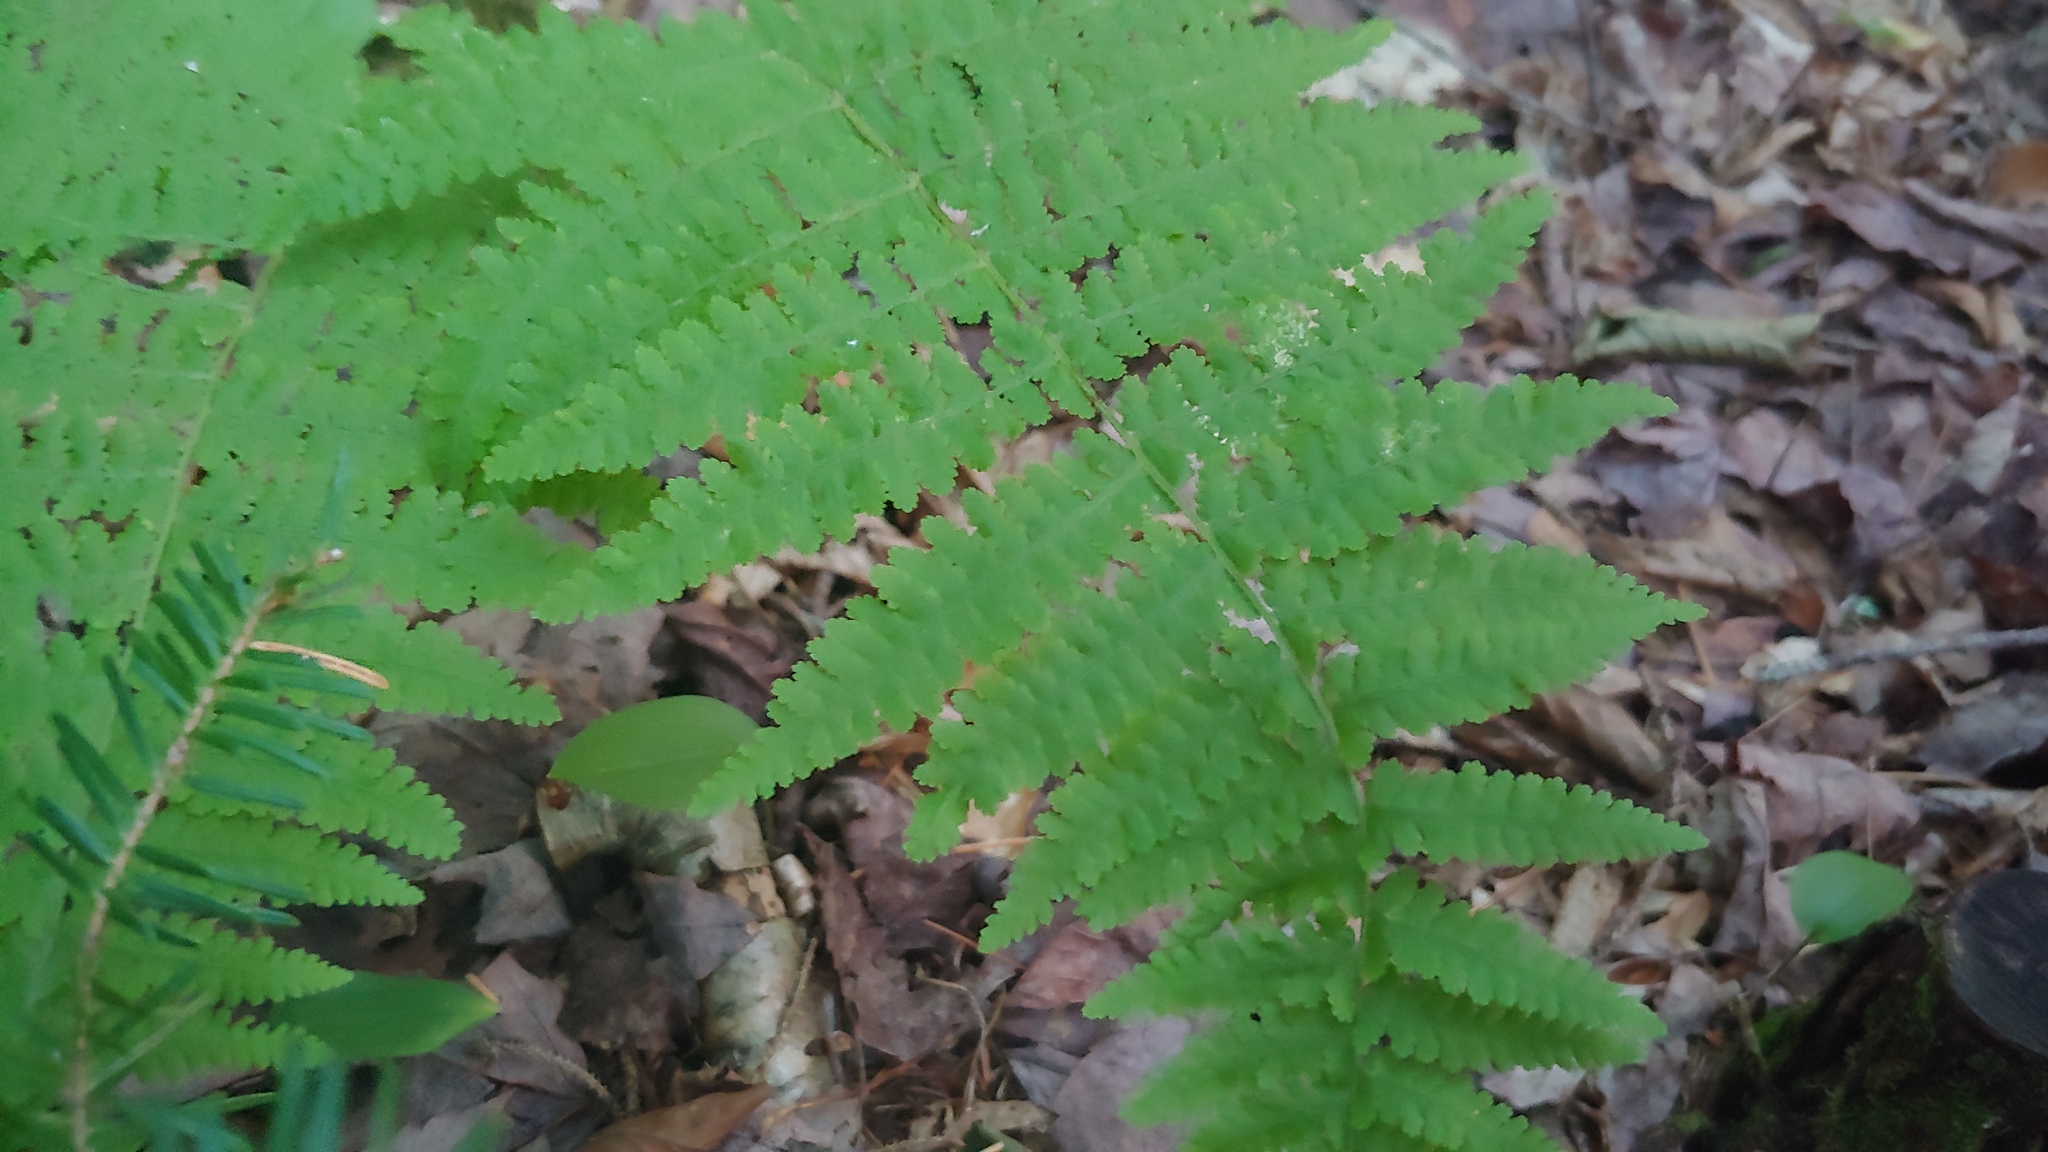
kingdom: Plantae
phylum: Tracheophyta
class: Polypodiopsida
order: Polypodiales
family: Dennstaedtiaceae
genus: Sitobolium
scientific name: Sitobolium punctilobum
